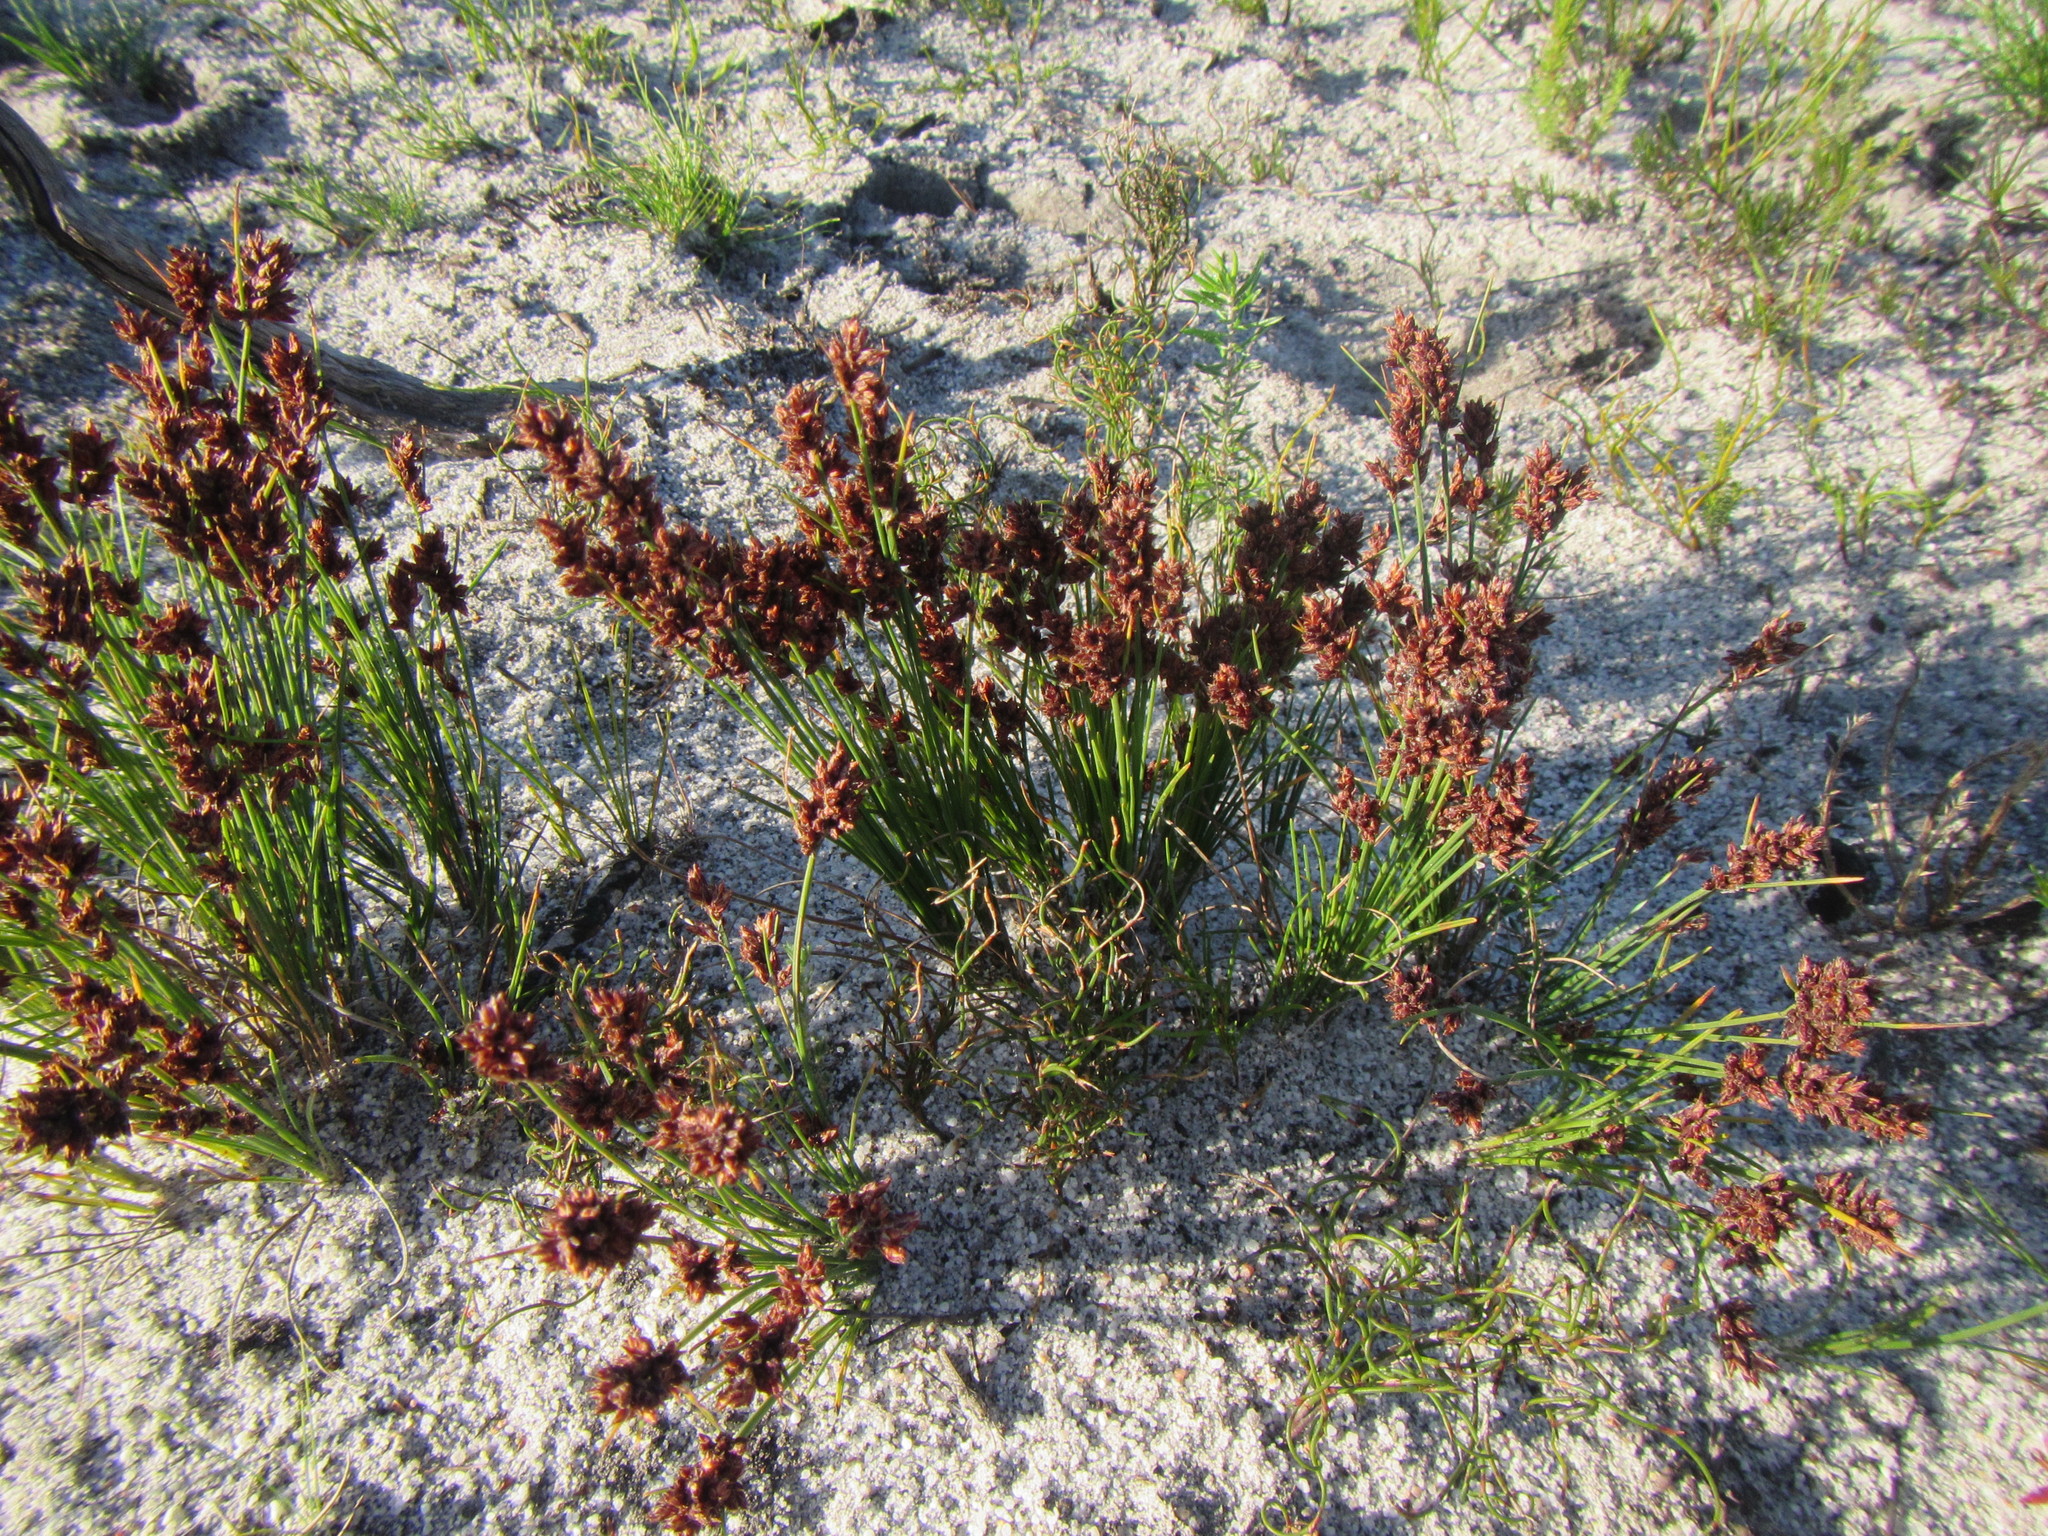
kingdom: Plantae
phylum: Tracheophyta
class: Liliopsida
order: Poales
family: Cyperaceae
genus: Ficinia
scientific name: Ficinia bulbosa
